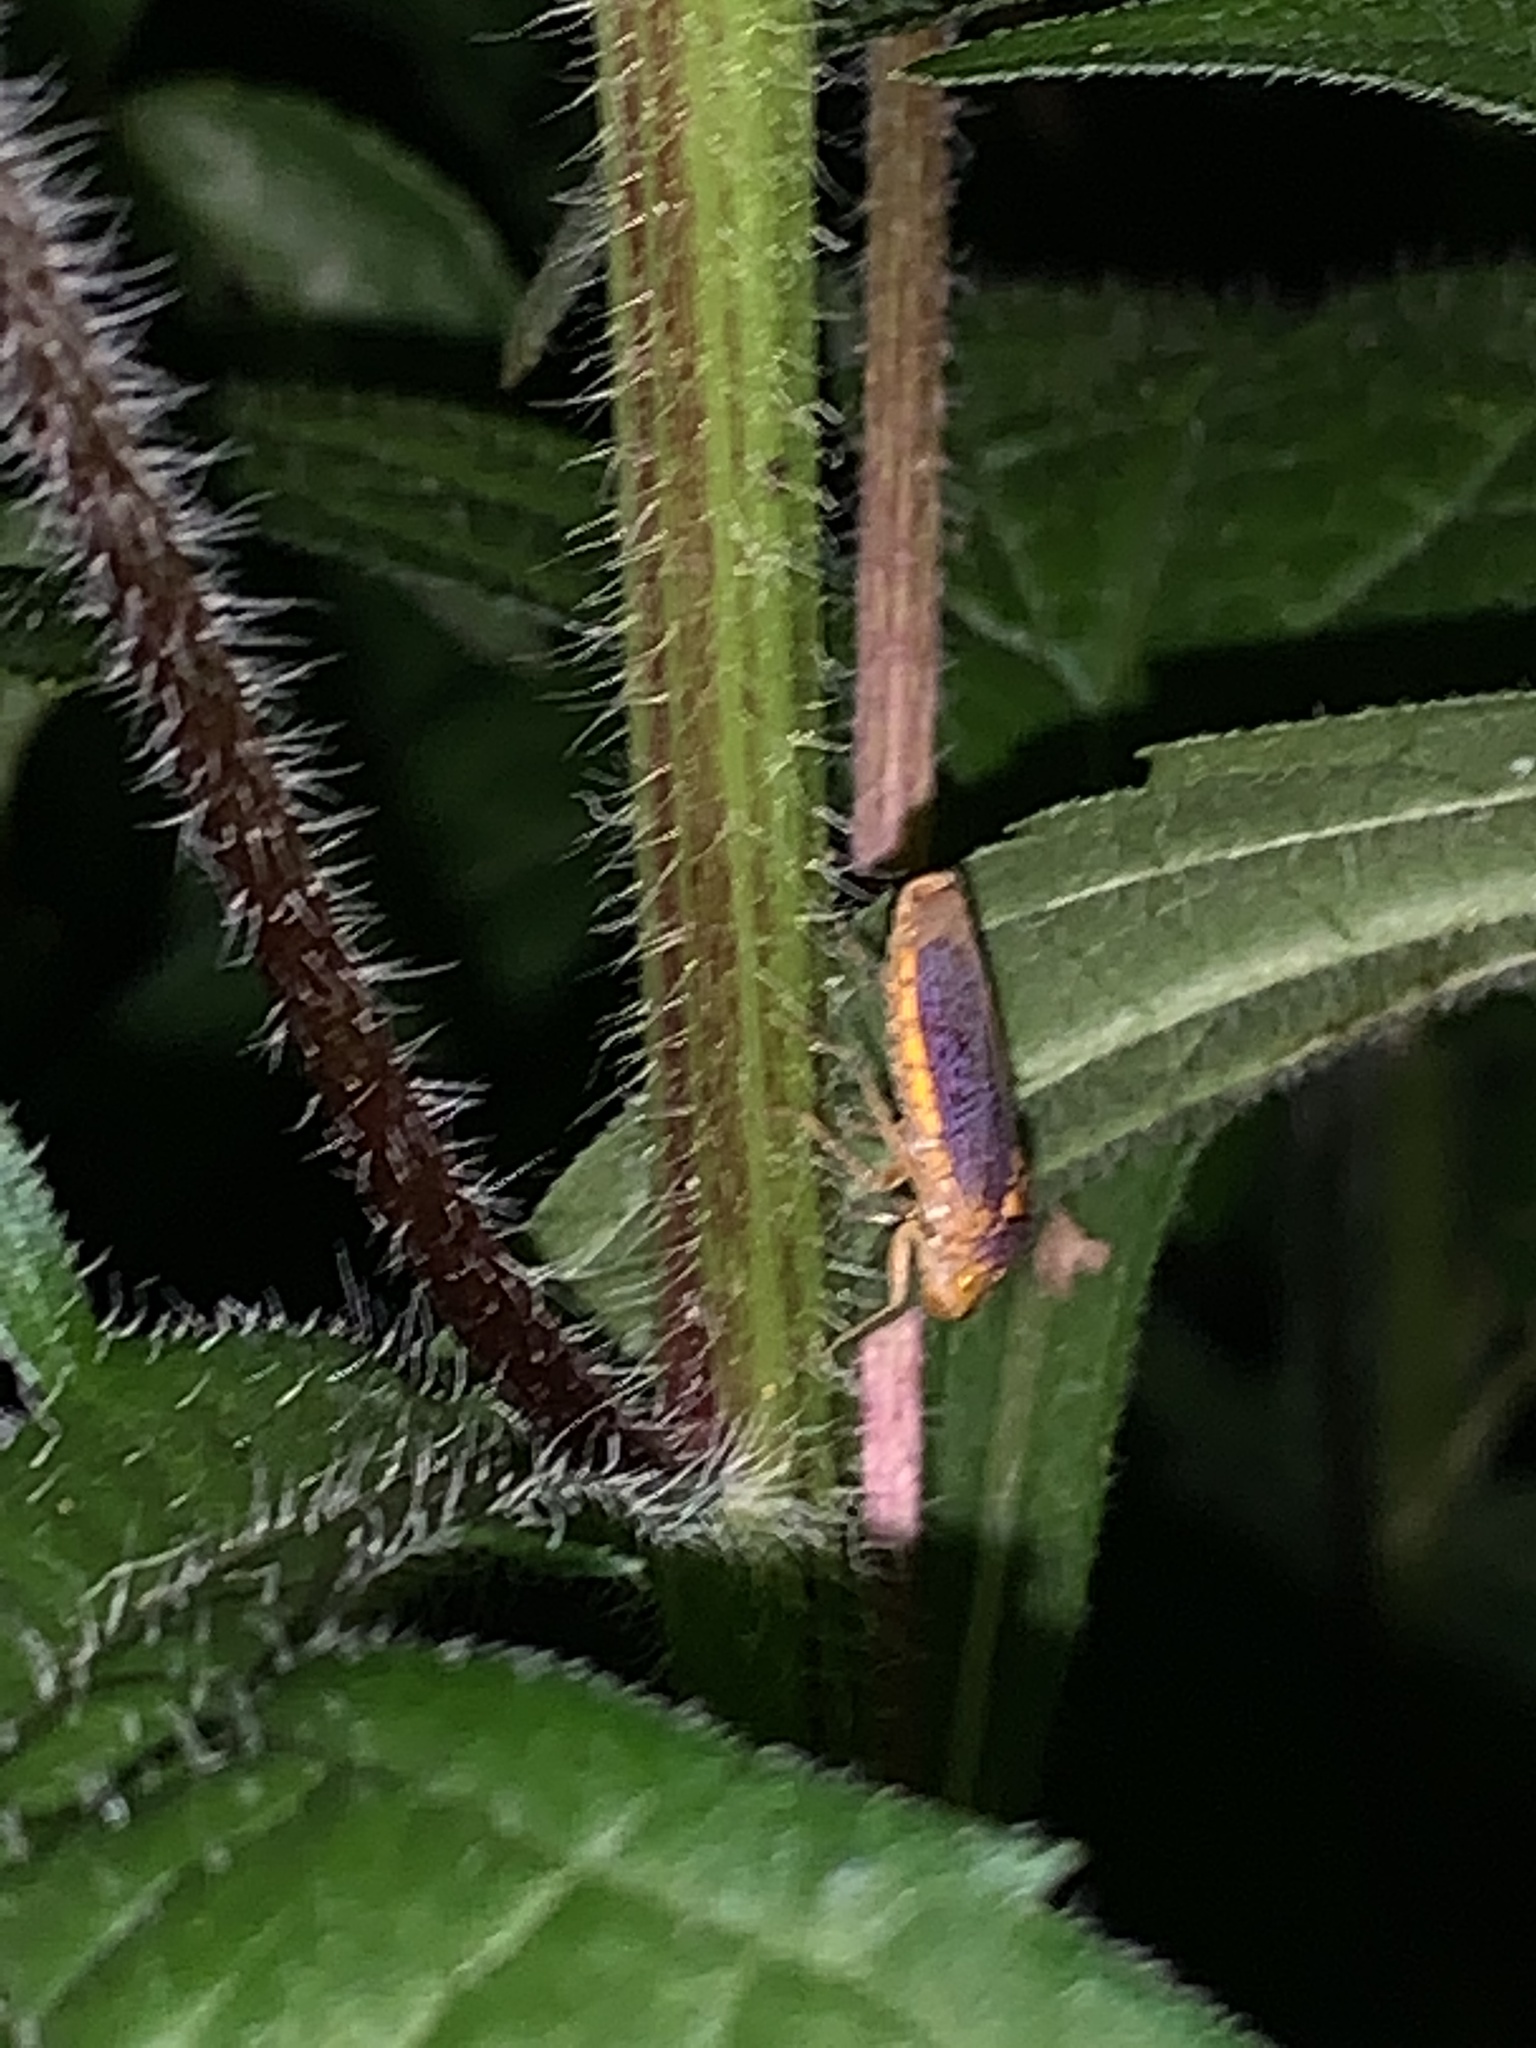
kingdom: Animalia
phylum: Arthropoda
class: Insecta
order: Hemiptera
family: Cicadellidae
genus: Oncometopia
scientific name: Oncometopia orbona
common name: Broad-headed sharpshooter
